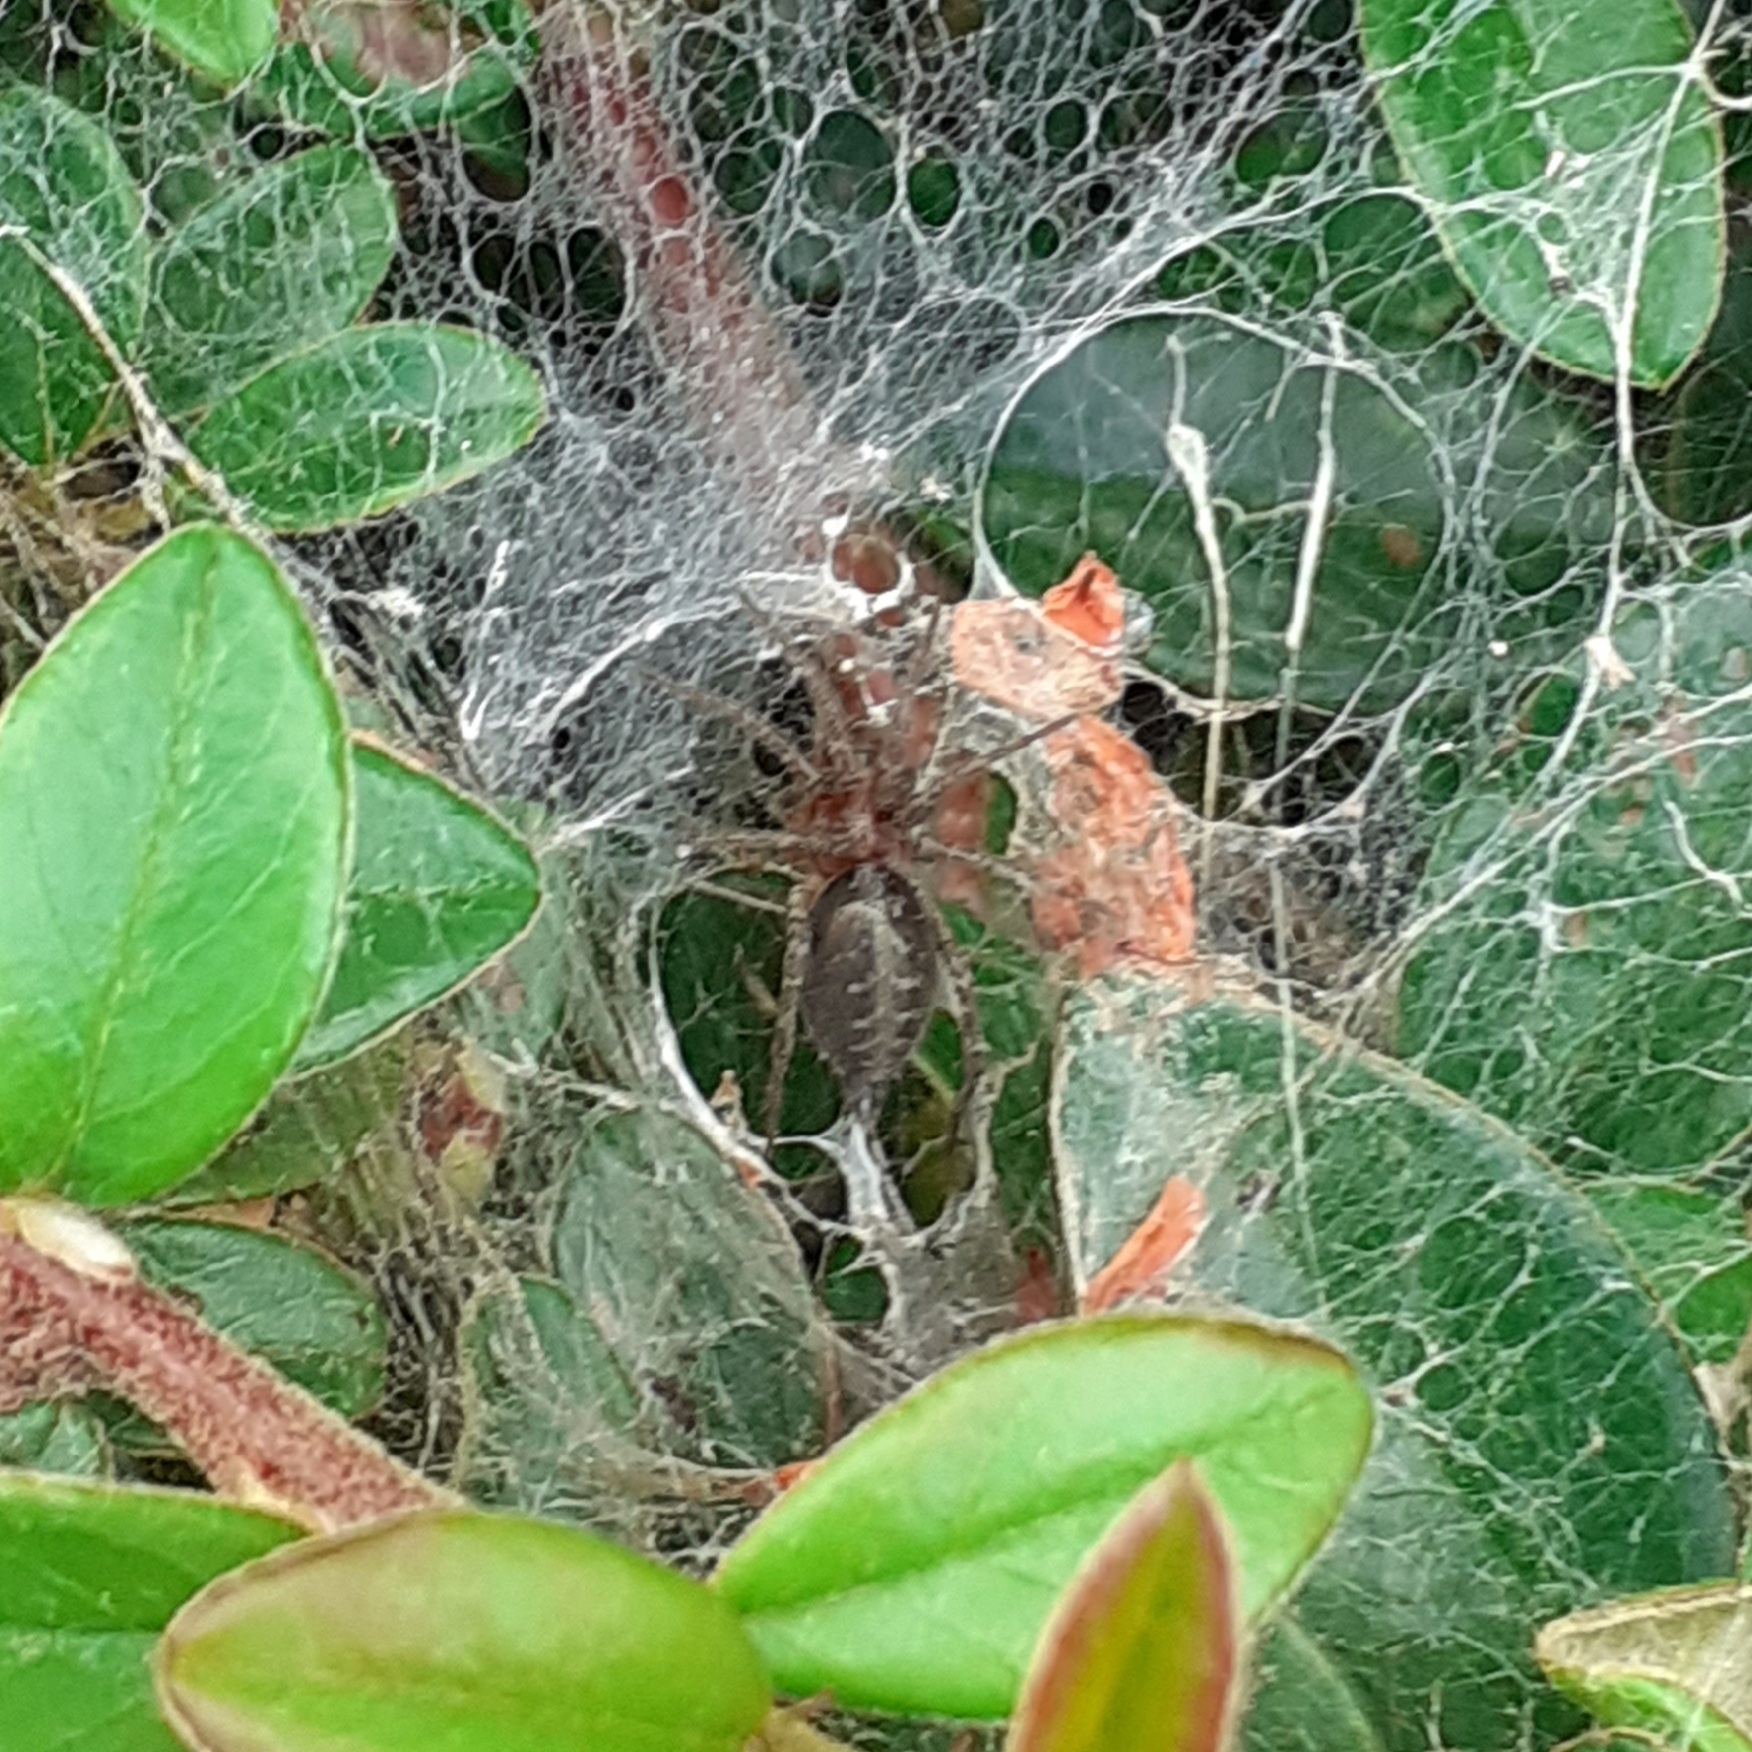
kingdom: Animalia
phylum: Arthropoda
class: Arachnida
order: Araneae
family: Agelenidae
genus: Agelena
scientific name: Agelena labyrinthica
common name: Labyrinth spider
